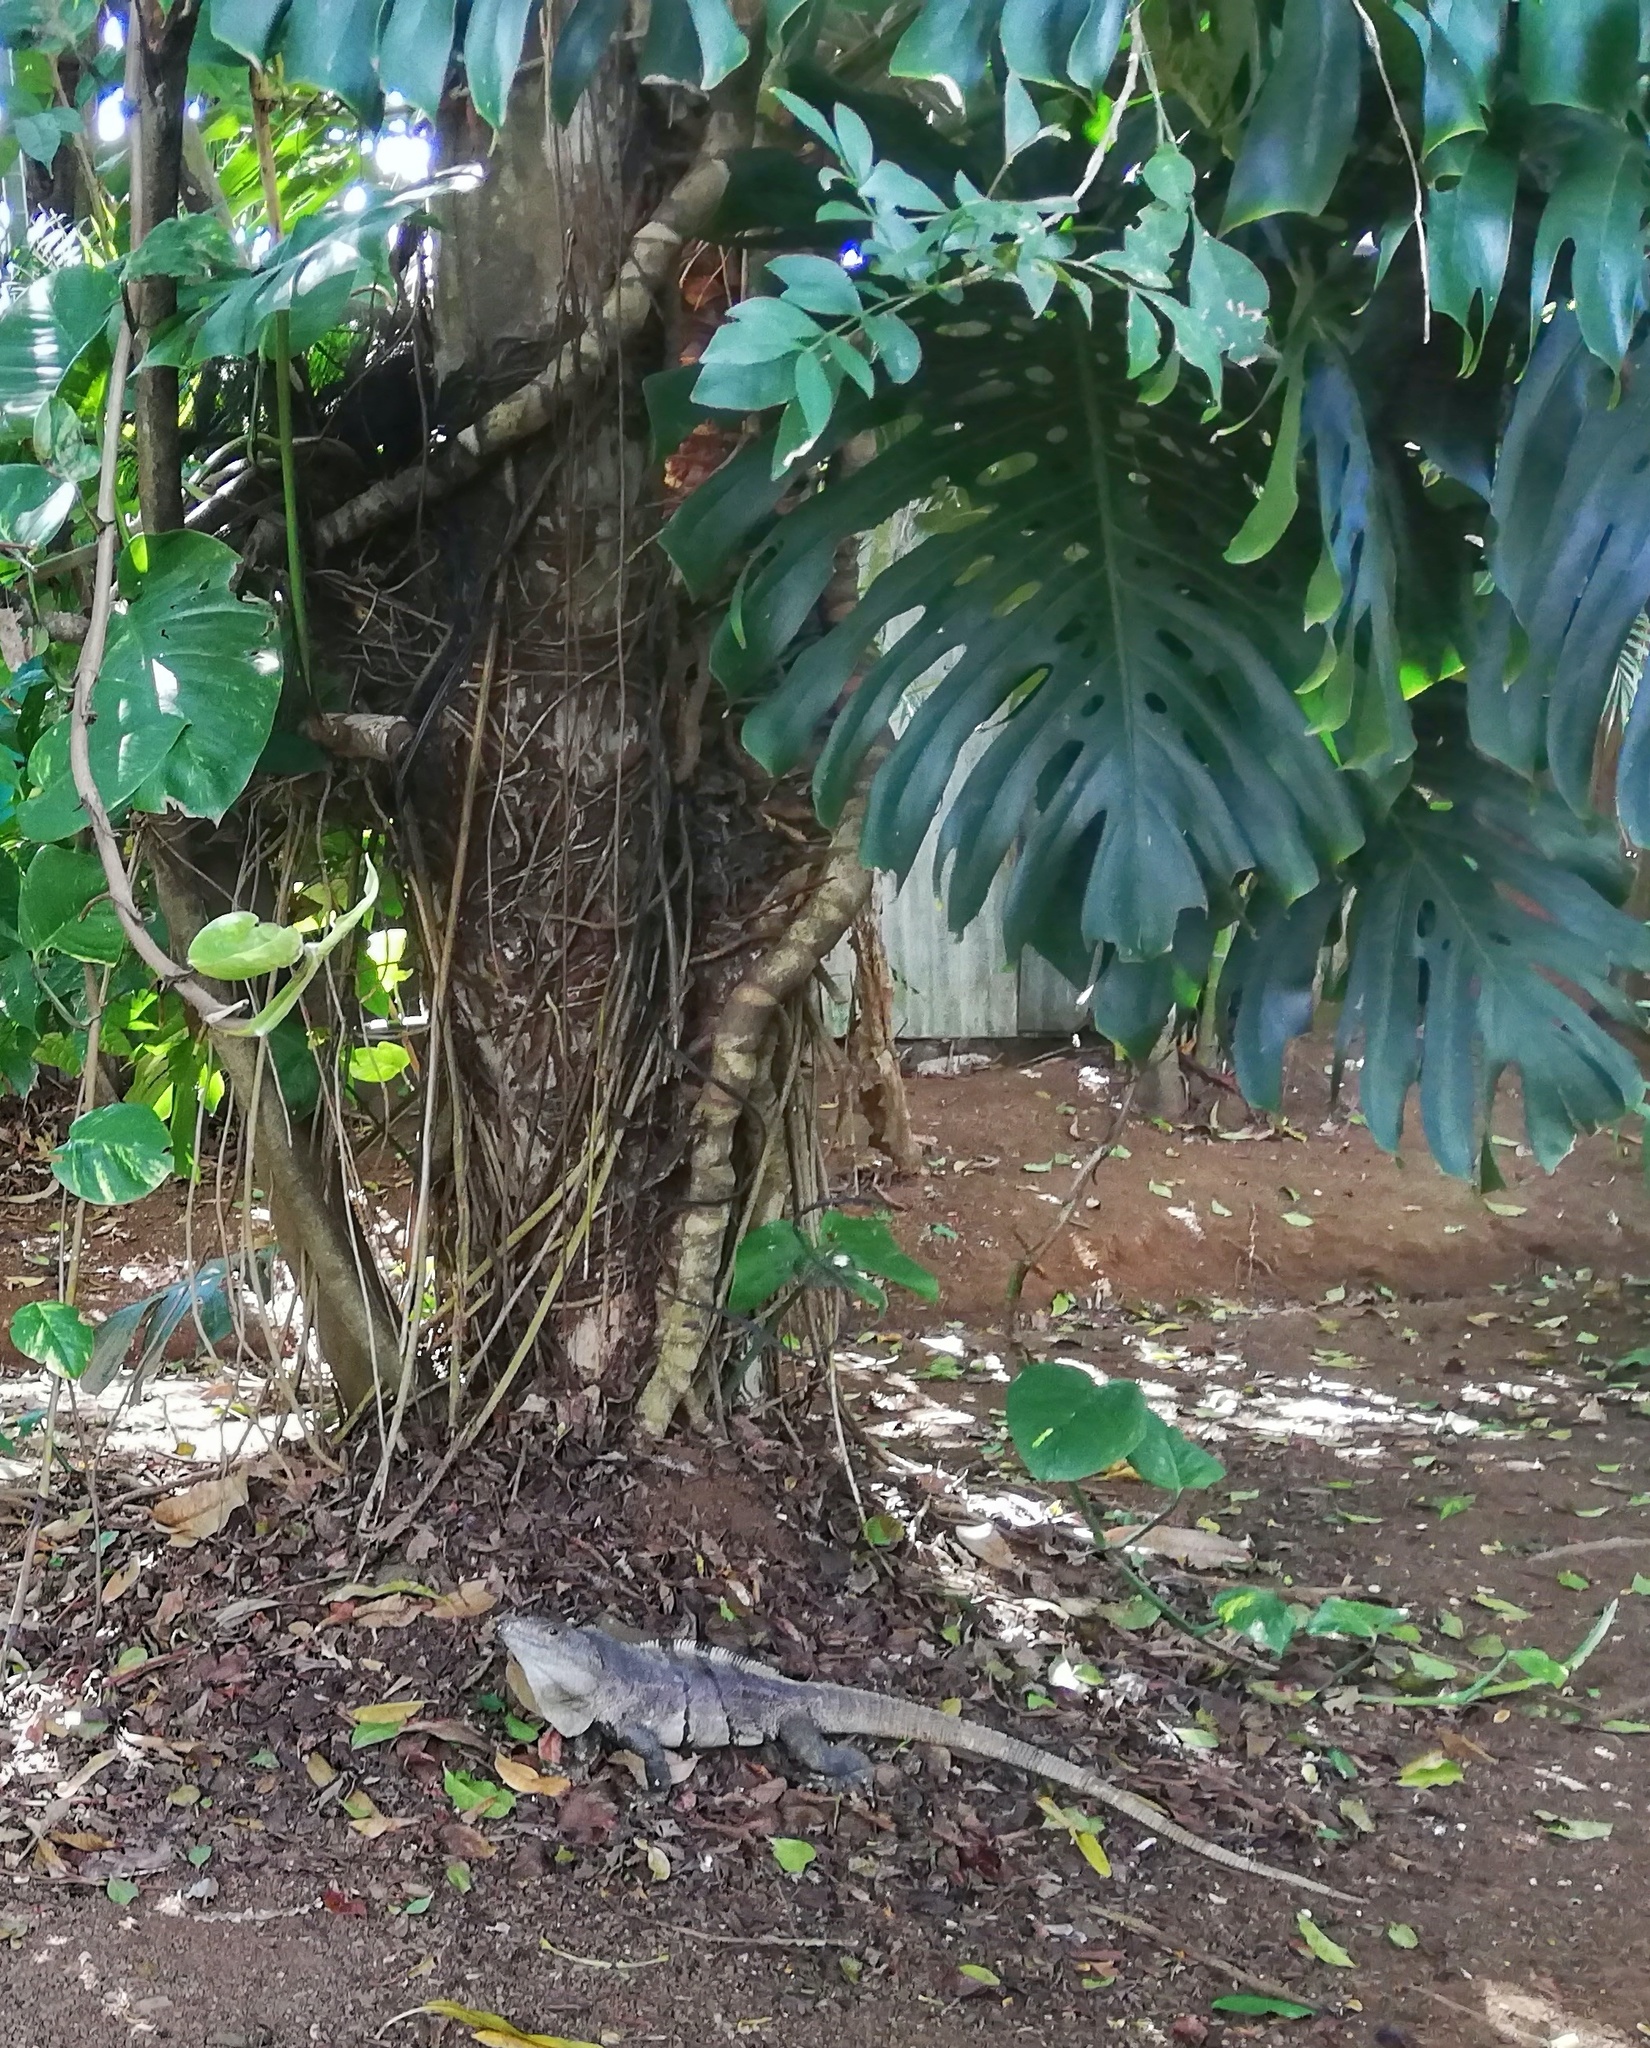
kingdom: Animalia
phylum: Chordata
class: Squamata
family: Iguanidae
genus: Ctenosaura
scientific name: Ctenosaura similis
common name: Black spiny-tailed iguana
